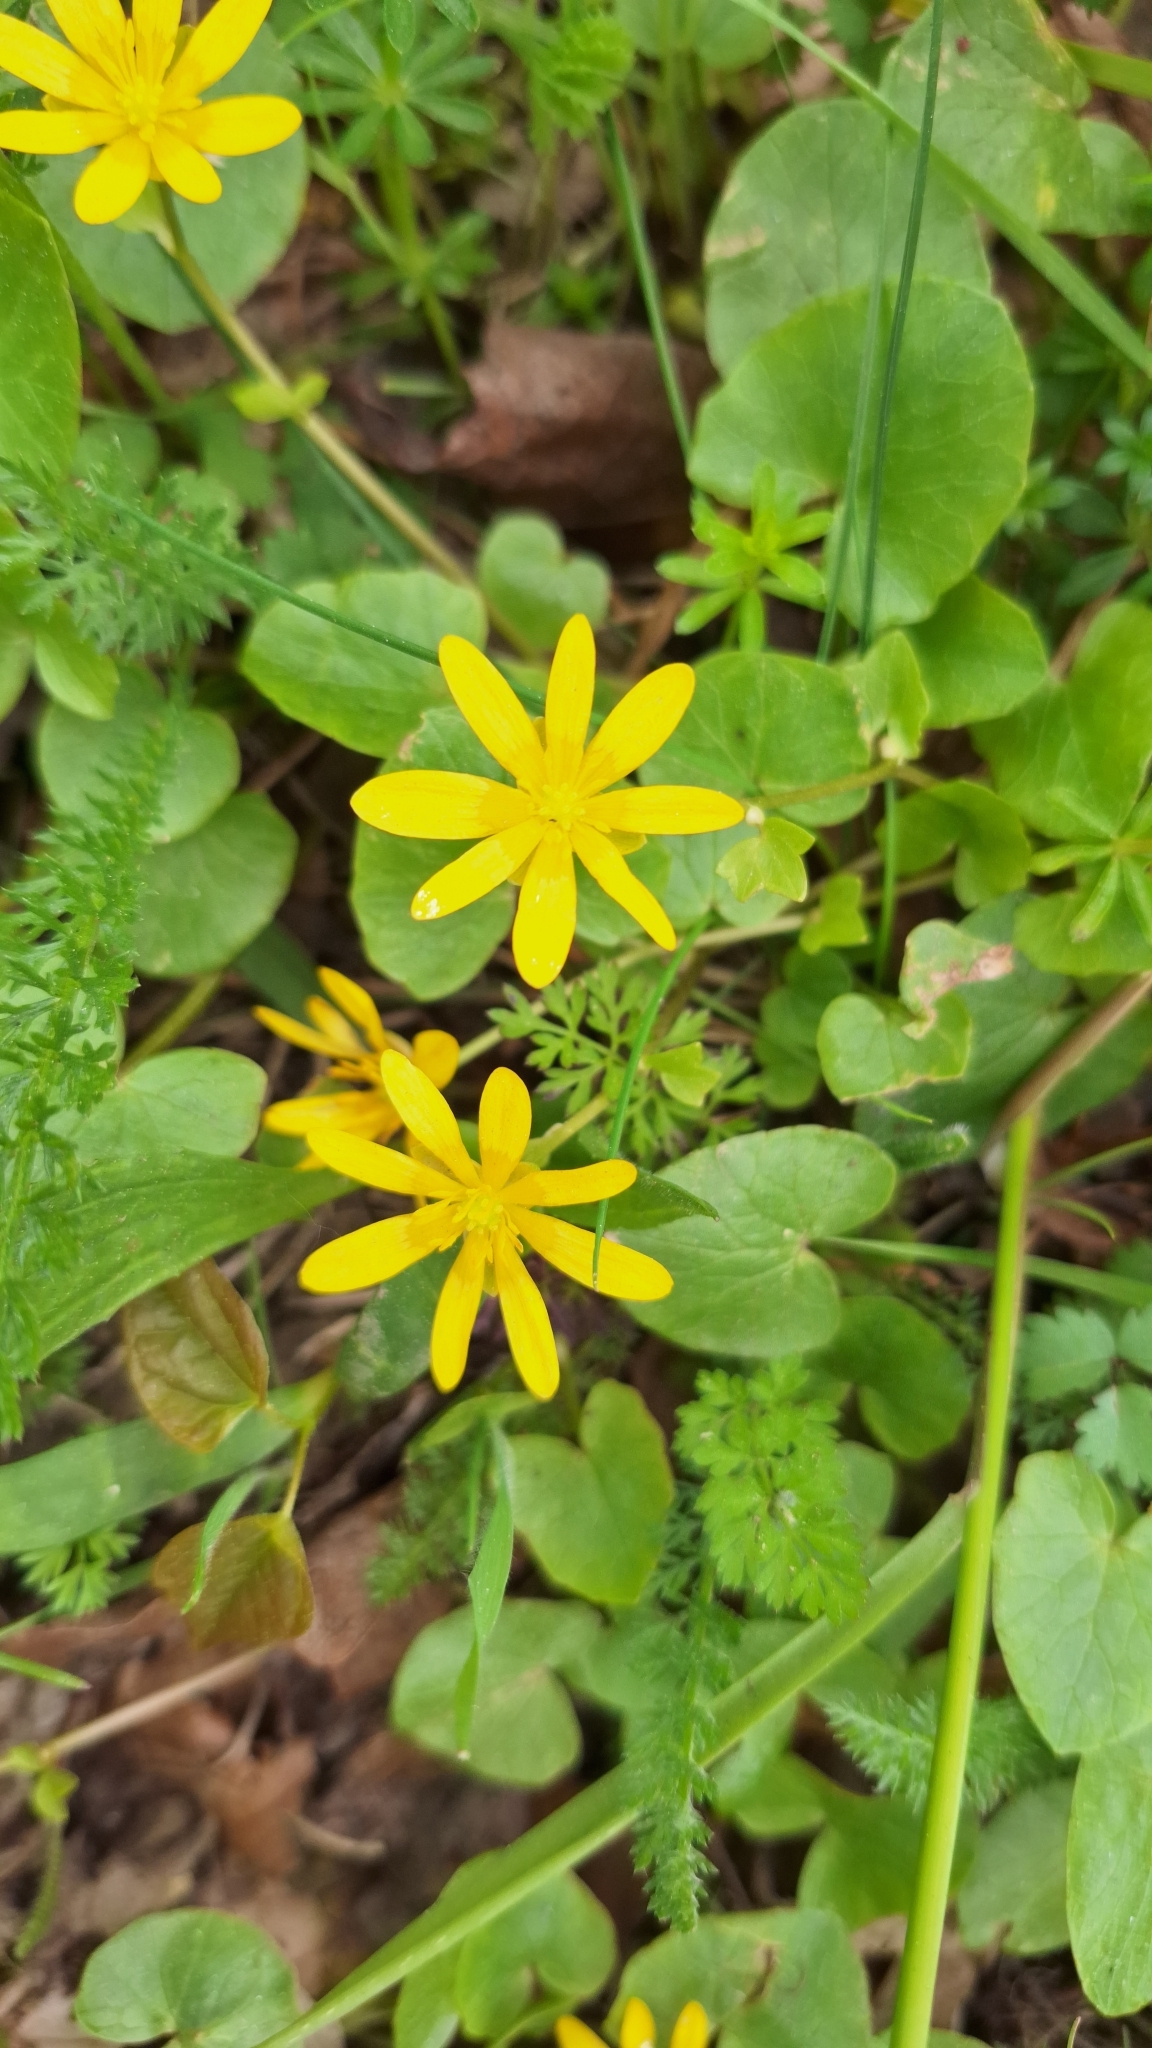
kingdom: Plantae
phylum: Tracheophyta
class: Magnoliopsida
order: Ranunculales
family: Ranunculaceae
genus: Ficaria
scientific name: Ficaria verna
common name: Lesser celandine
